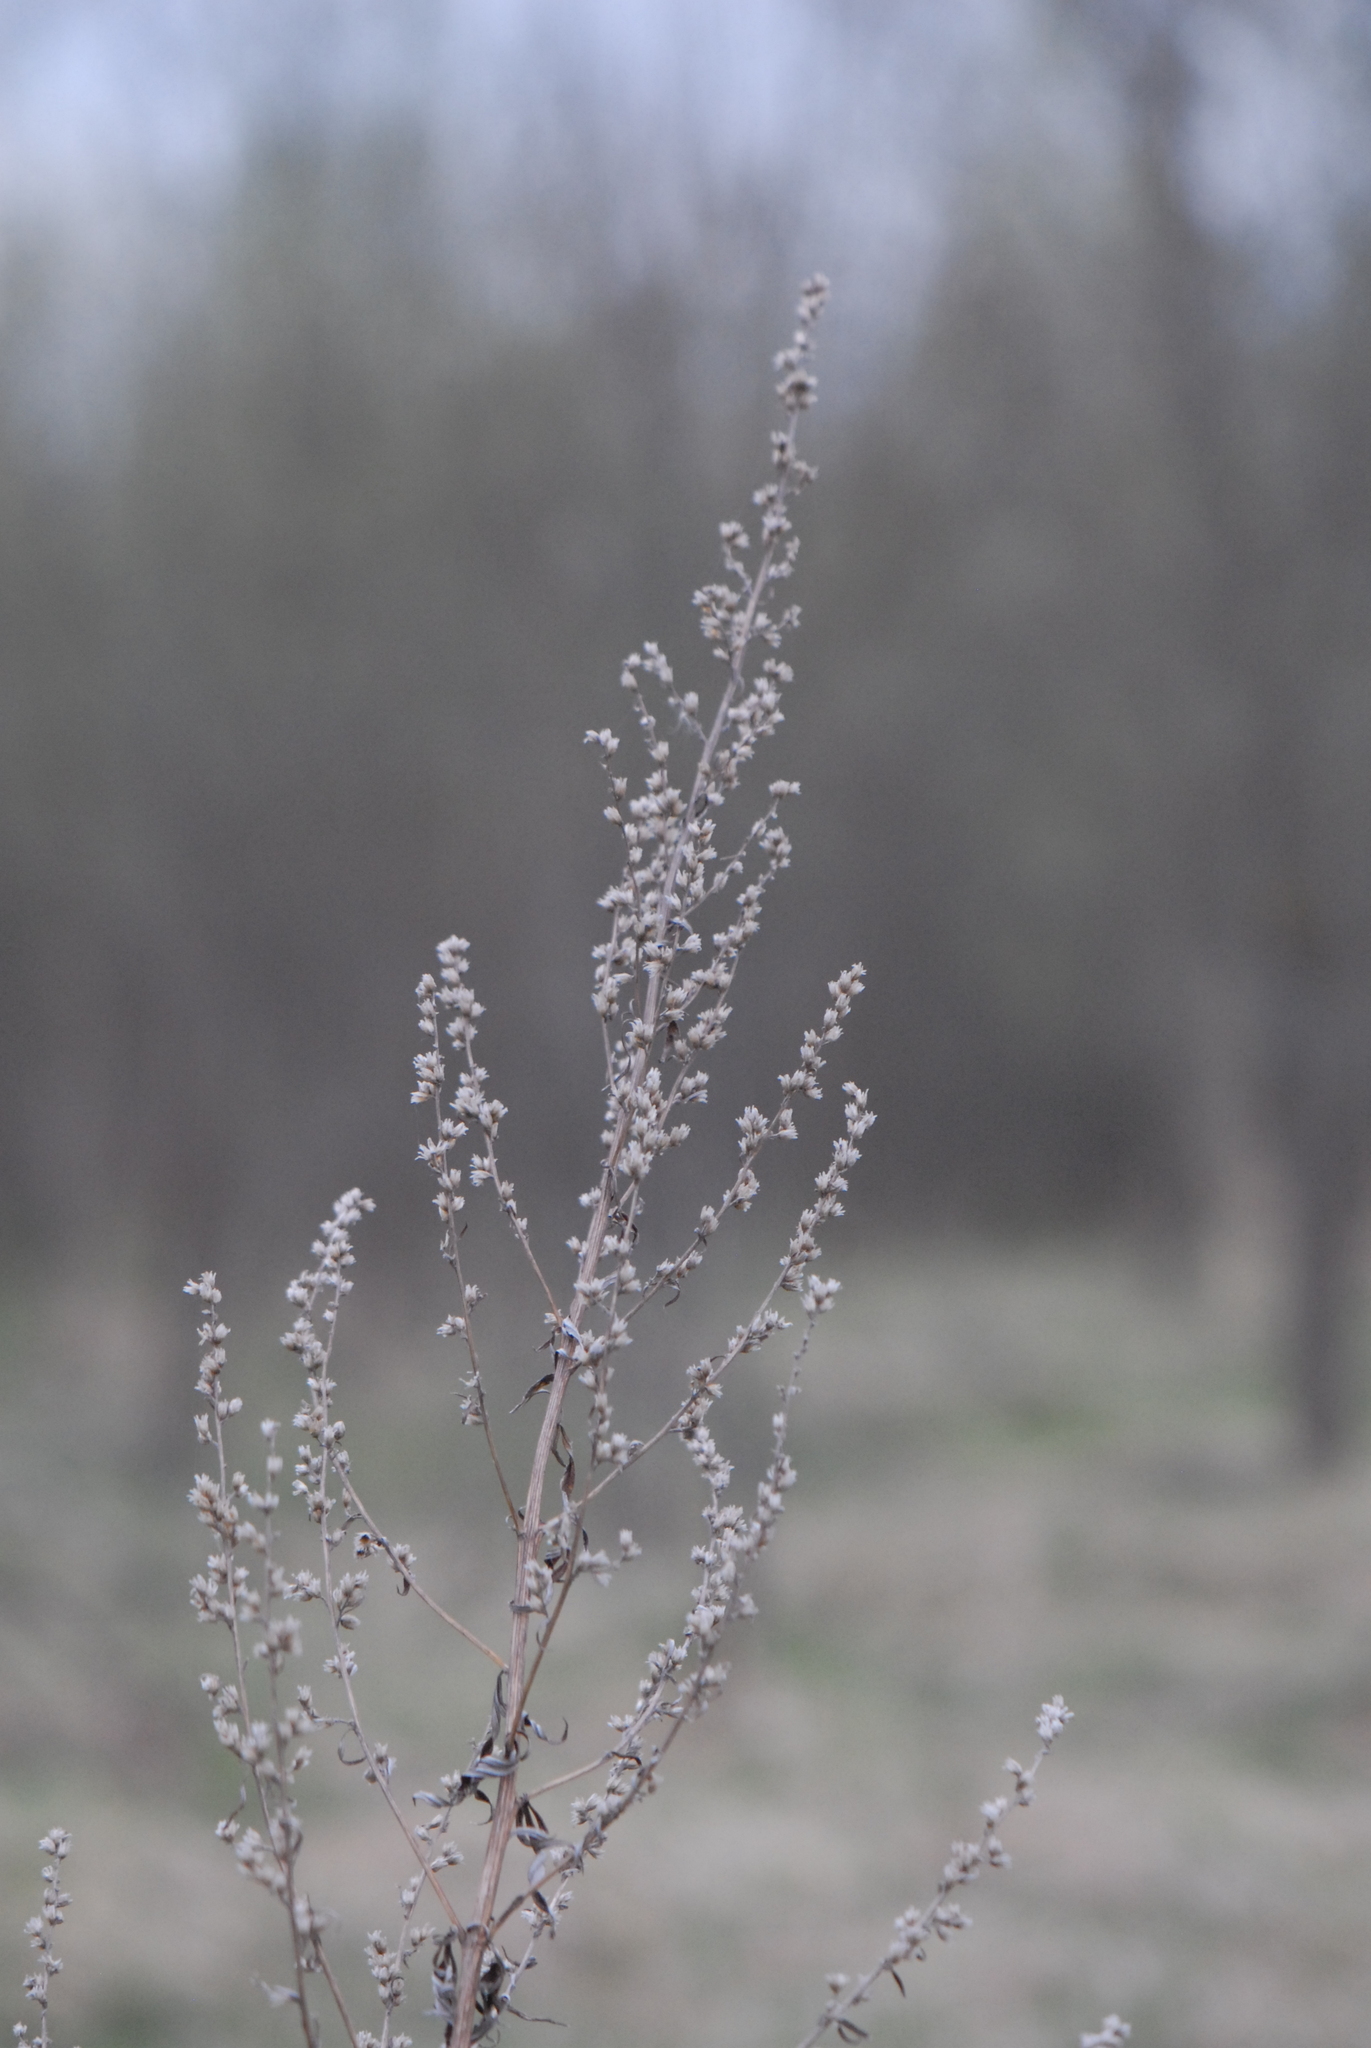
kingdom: Plantae
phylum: Tracheophyta
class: Magnoliopsida
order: Asterales
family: Asteraceae
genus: Artemisia
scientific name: Artemisia vulgaris
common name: Mugwort
